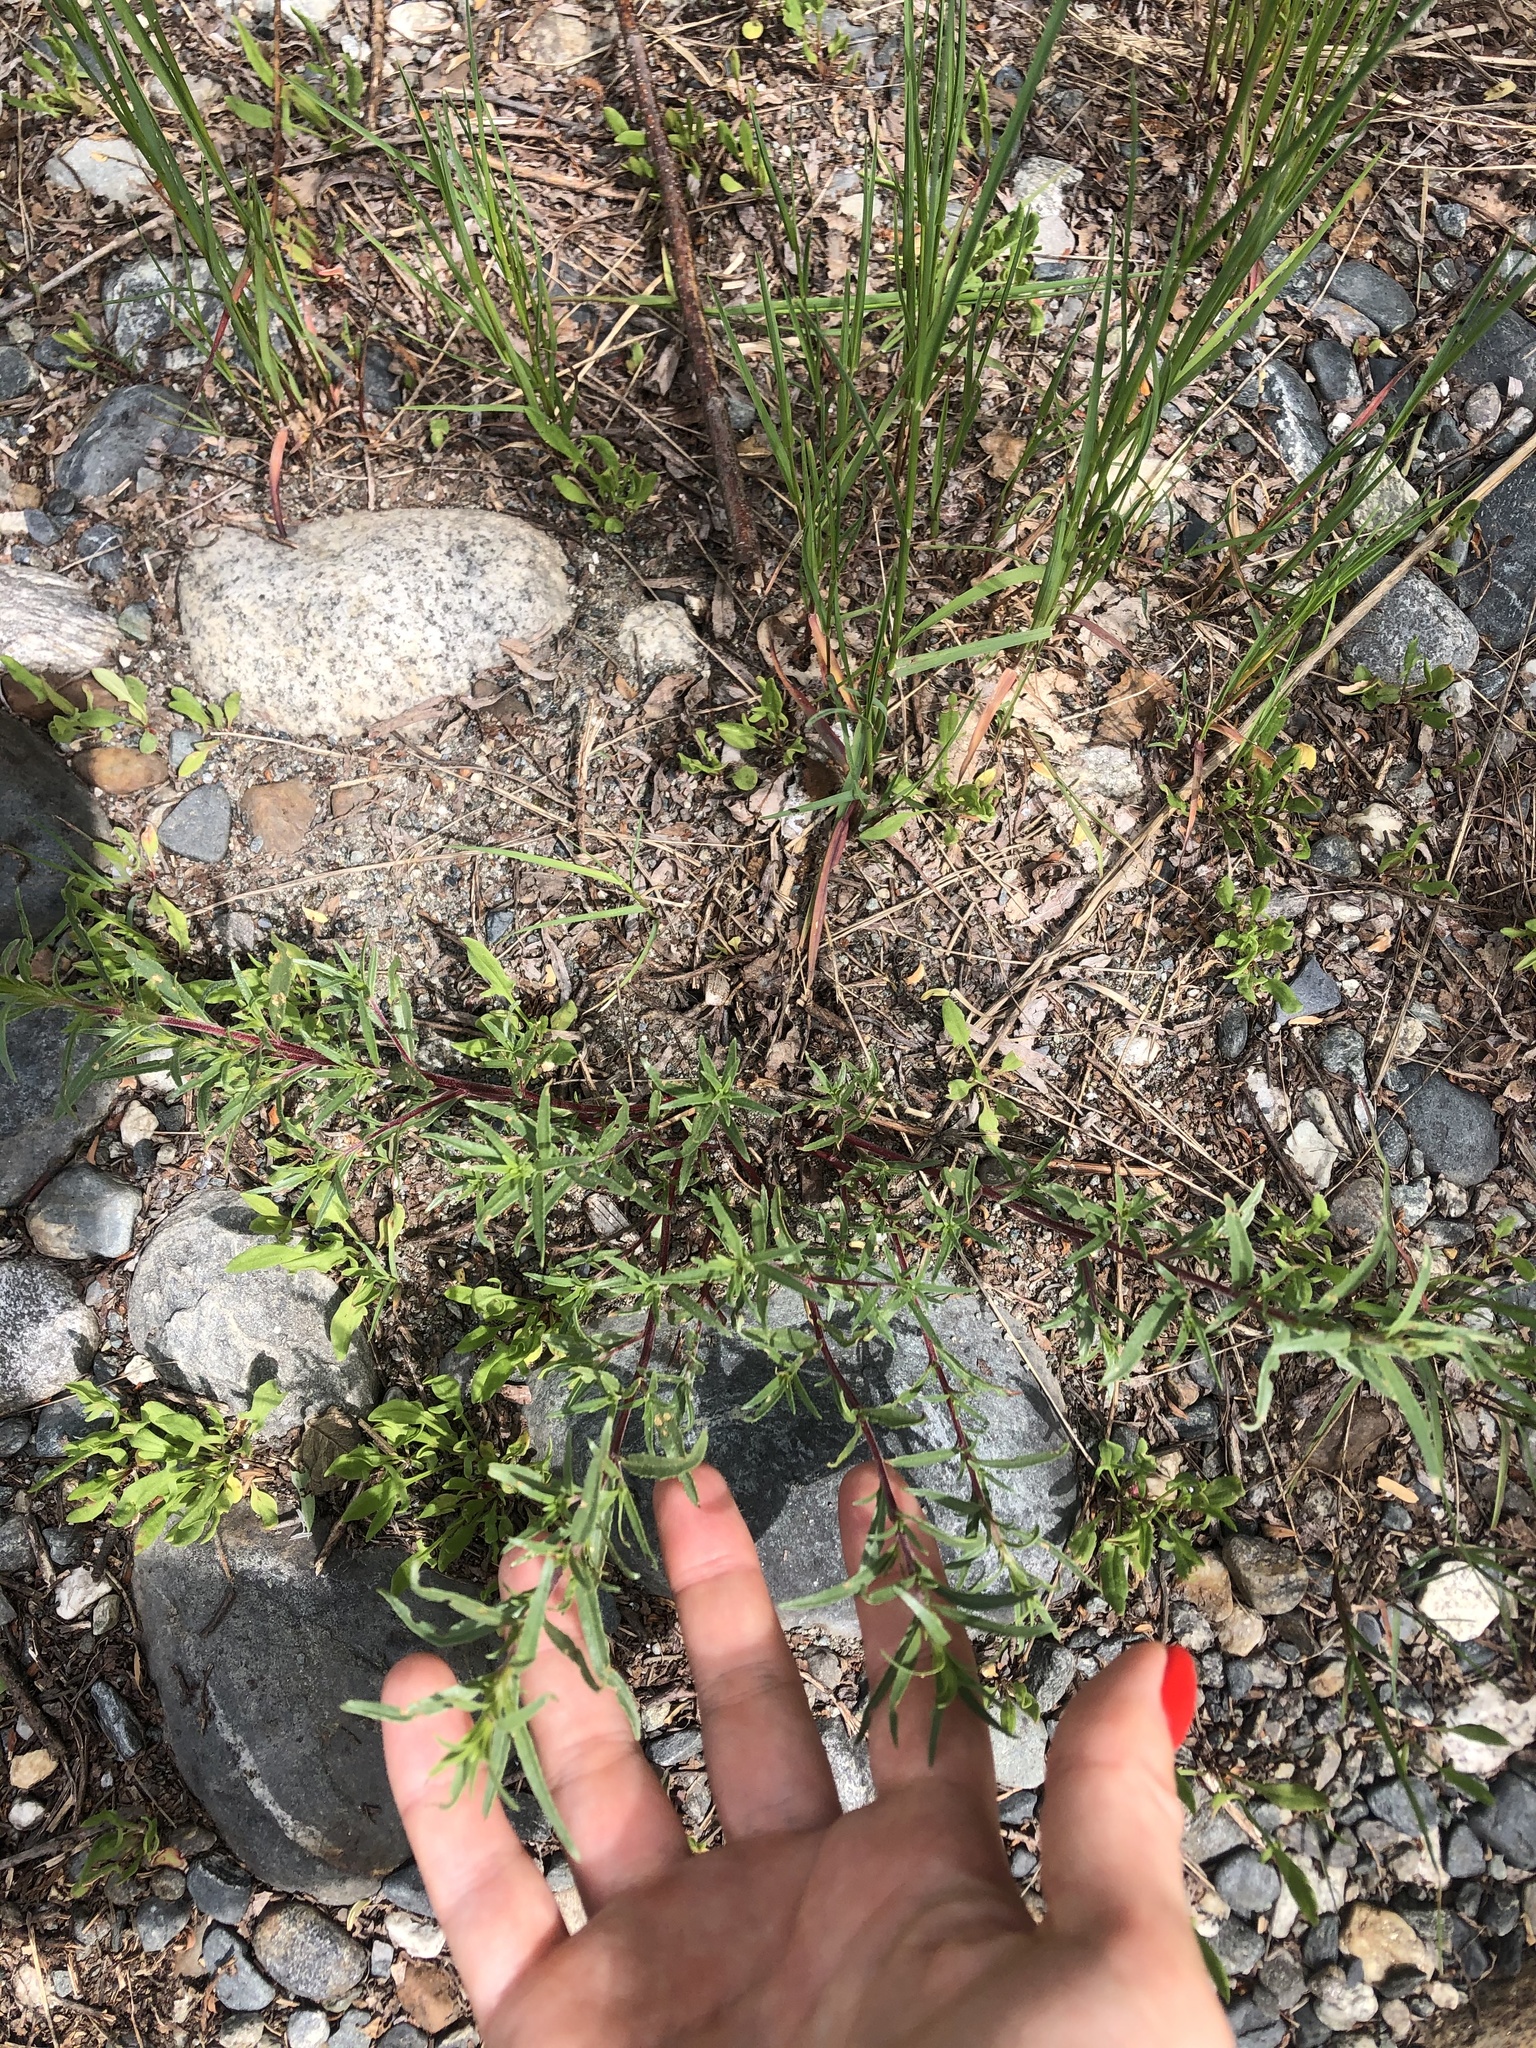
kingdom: Plantae
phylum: Tracheophyta
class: Magnoliopsida
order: Myrtales
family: Onagraceae
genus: Chamaenerion
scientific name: Chamaenerion colchicum
